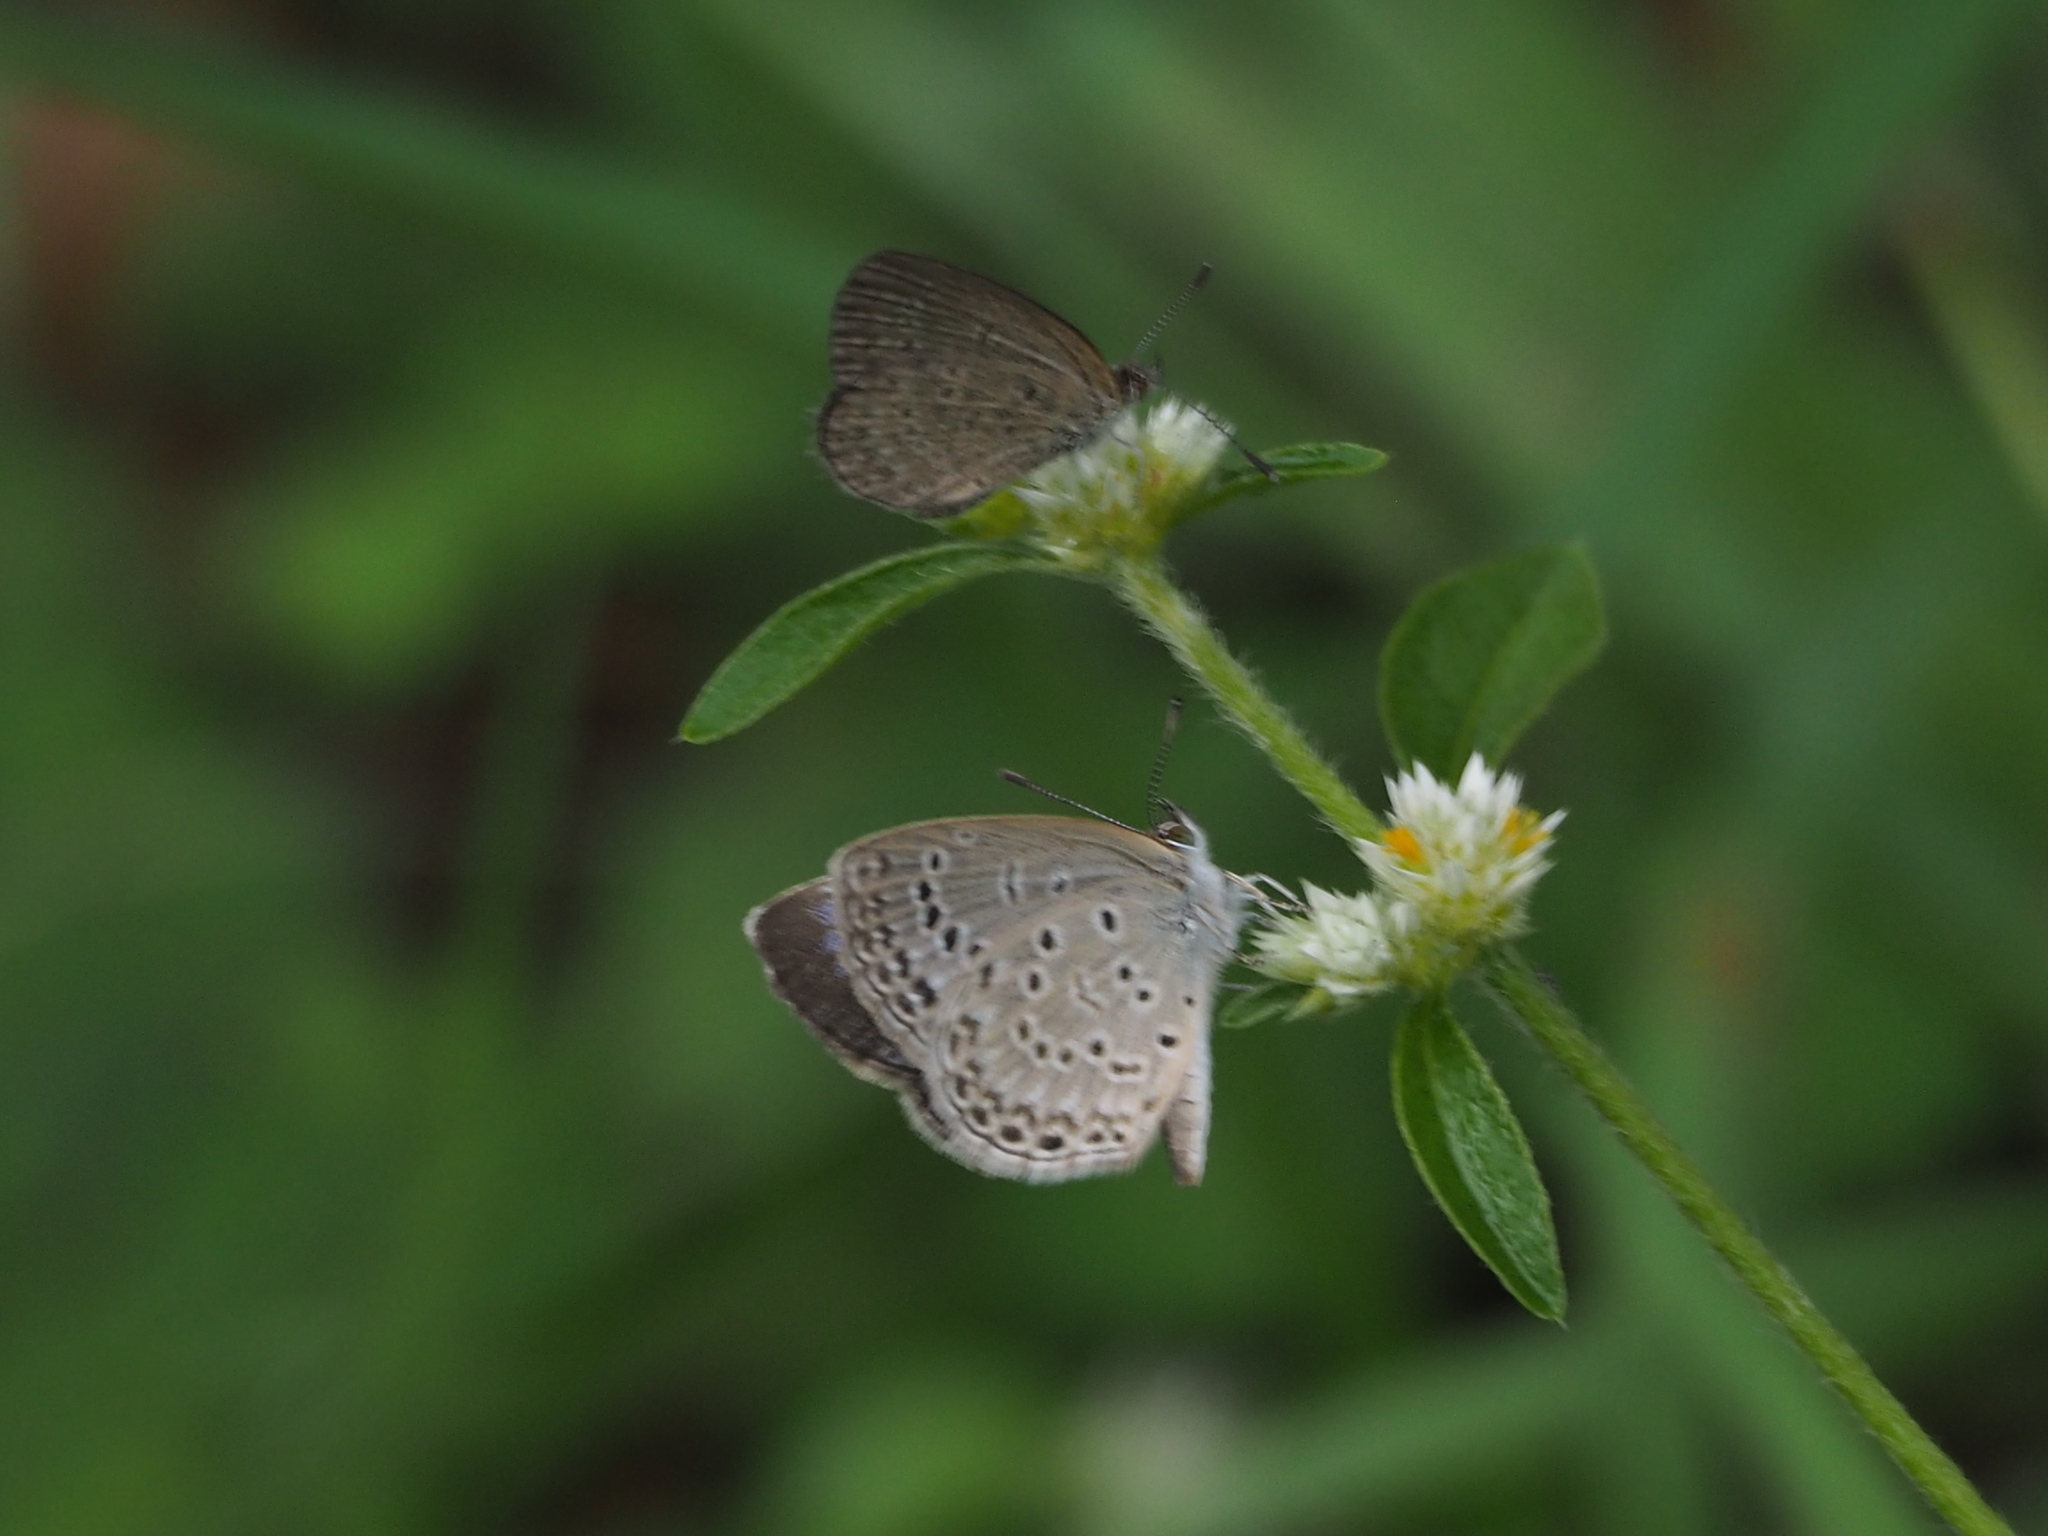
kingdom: Animalia
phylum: Arthropoda
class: Insecta
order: Lepidoptera
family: Lycaenidae
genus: Pseudozizeeria
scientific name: Pseudozizeeria maha
